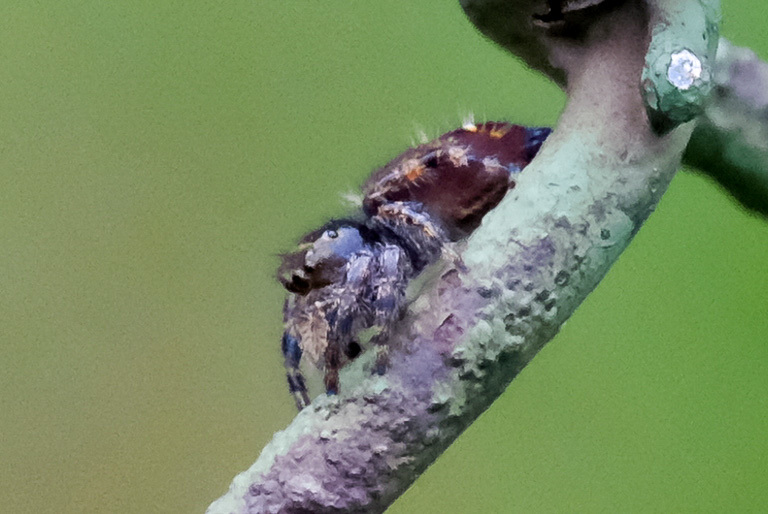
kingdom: Animalia
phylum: Arthropoda
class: Arachnida
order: Araneae
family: Salticidae
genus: Phidippus
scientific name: Phidippus audax
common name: Bold jumper
